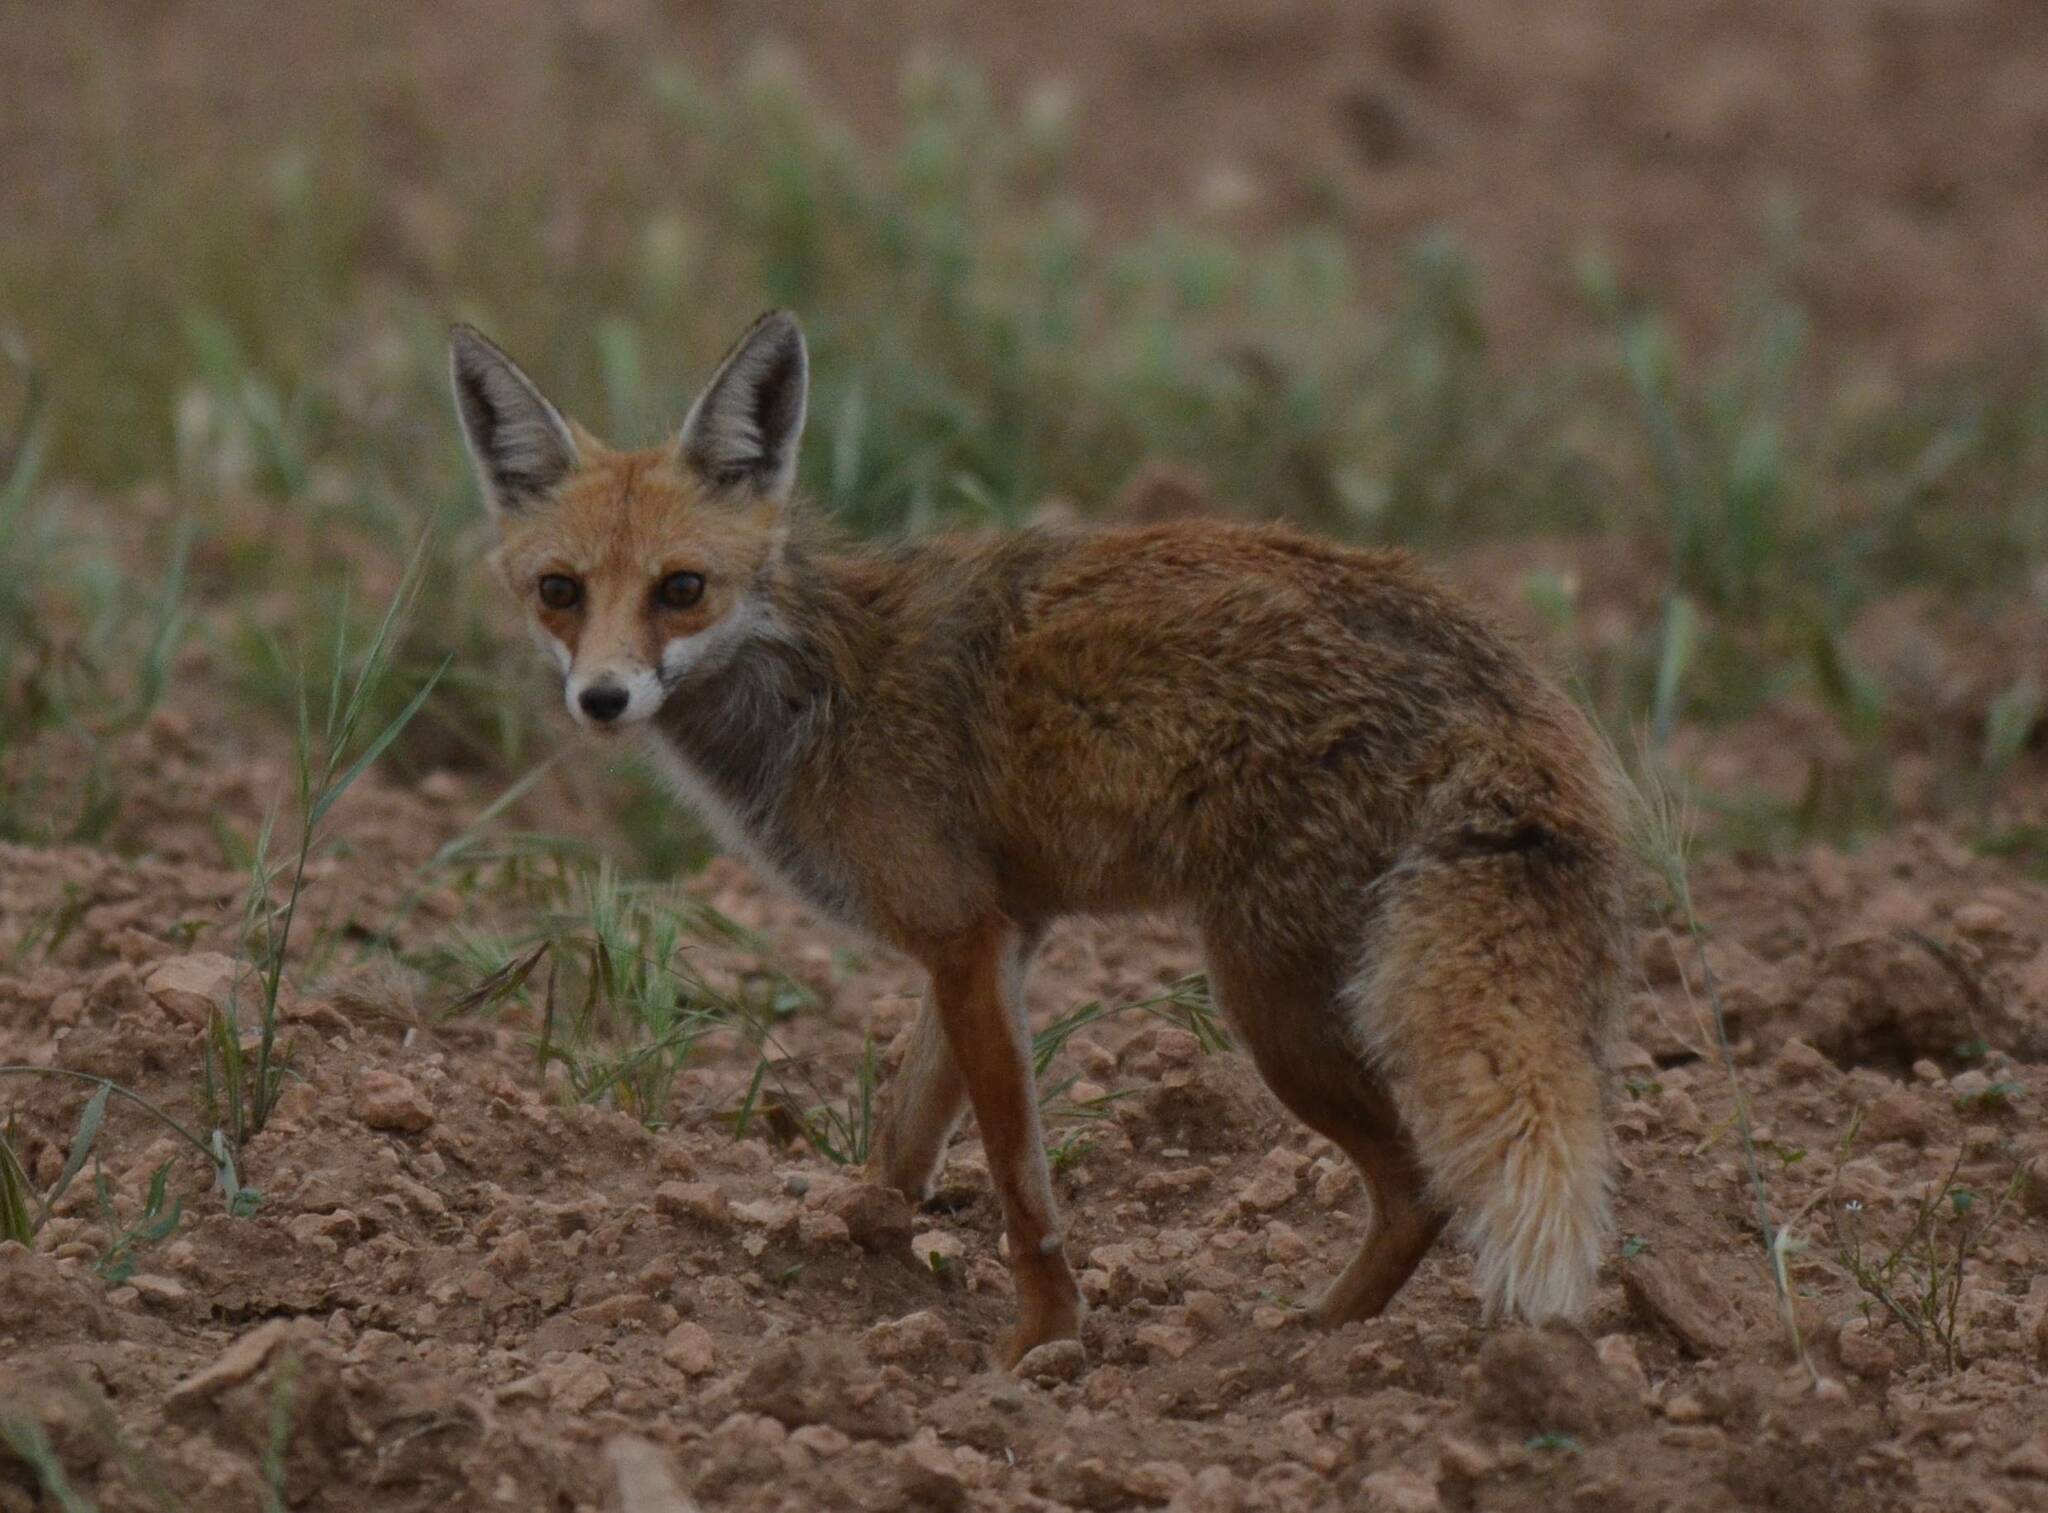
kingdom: Animalia
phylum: Chordata
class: Mammalia
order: Carnivora
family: Canidae
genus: Vulpes
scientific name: Vulpes vulpes
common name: Red fox
